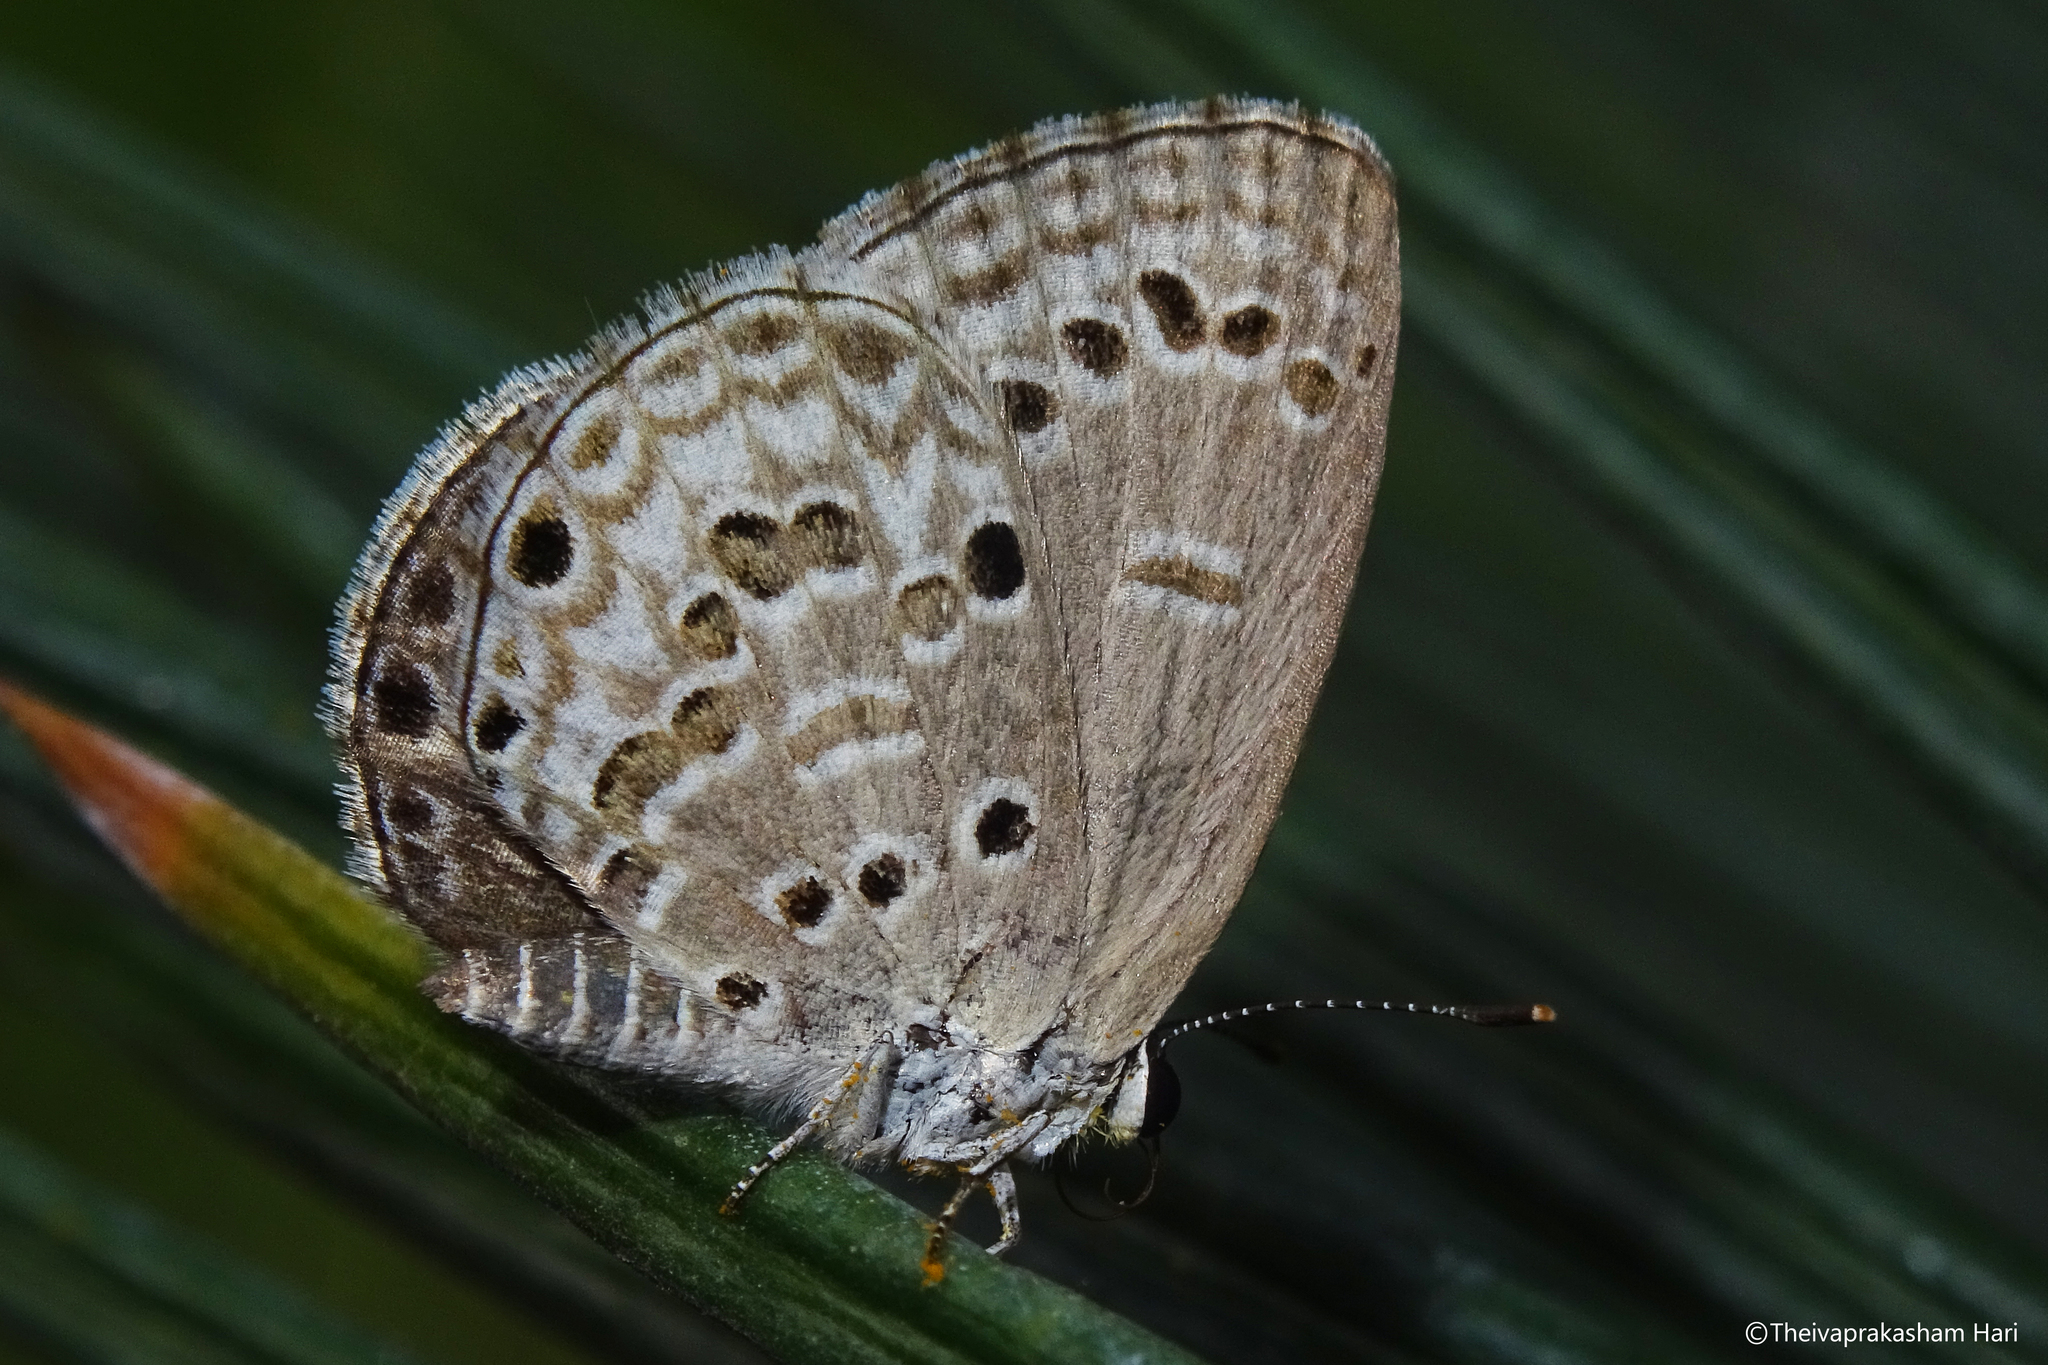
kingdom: Animalia
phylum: Arthropoda
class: Insecta
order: Lepidoptera
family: Lycaenidae
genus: Chilades
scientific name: Chilades laius
